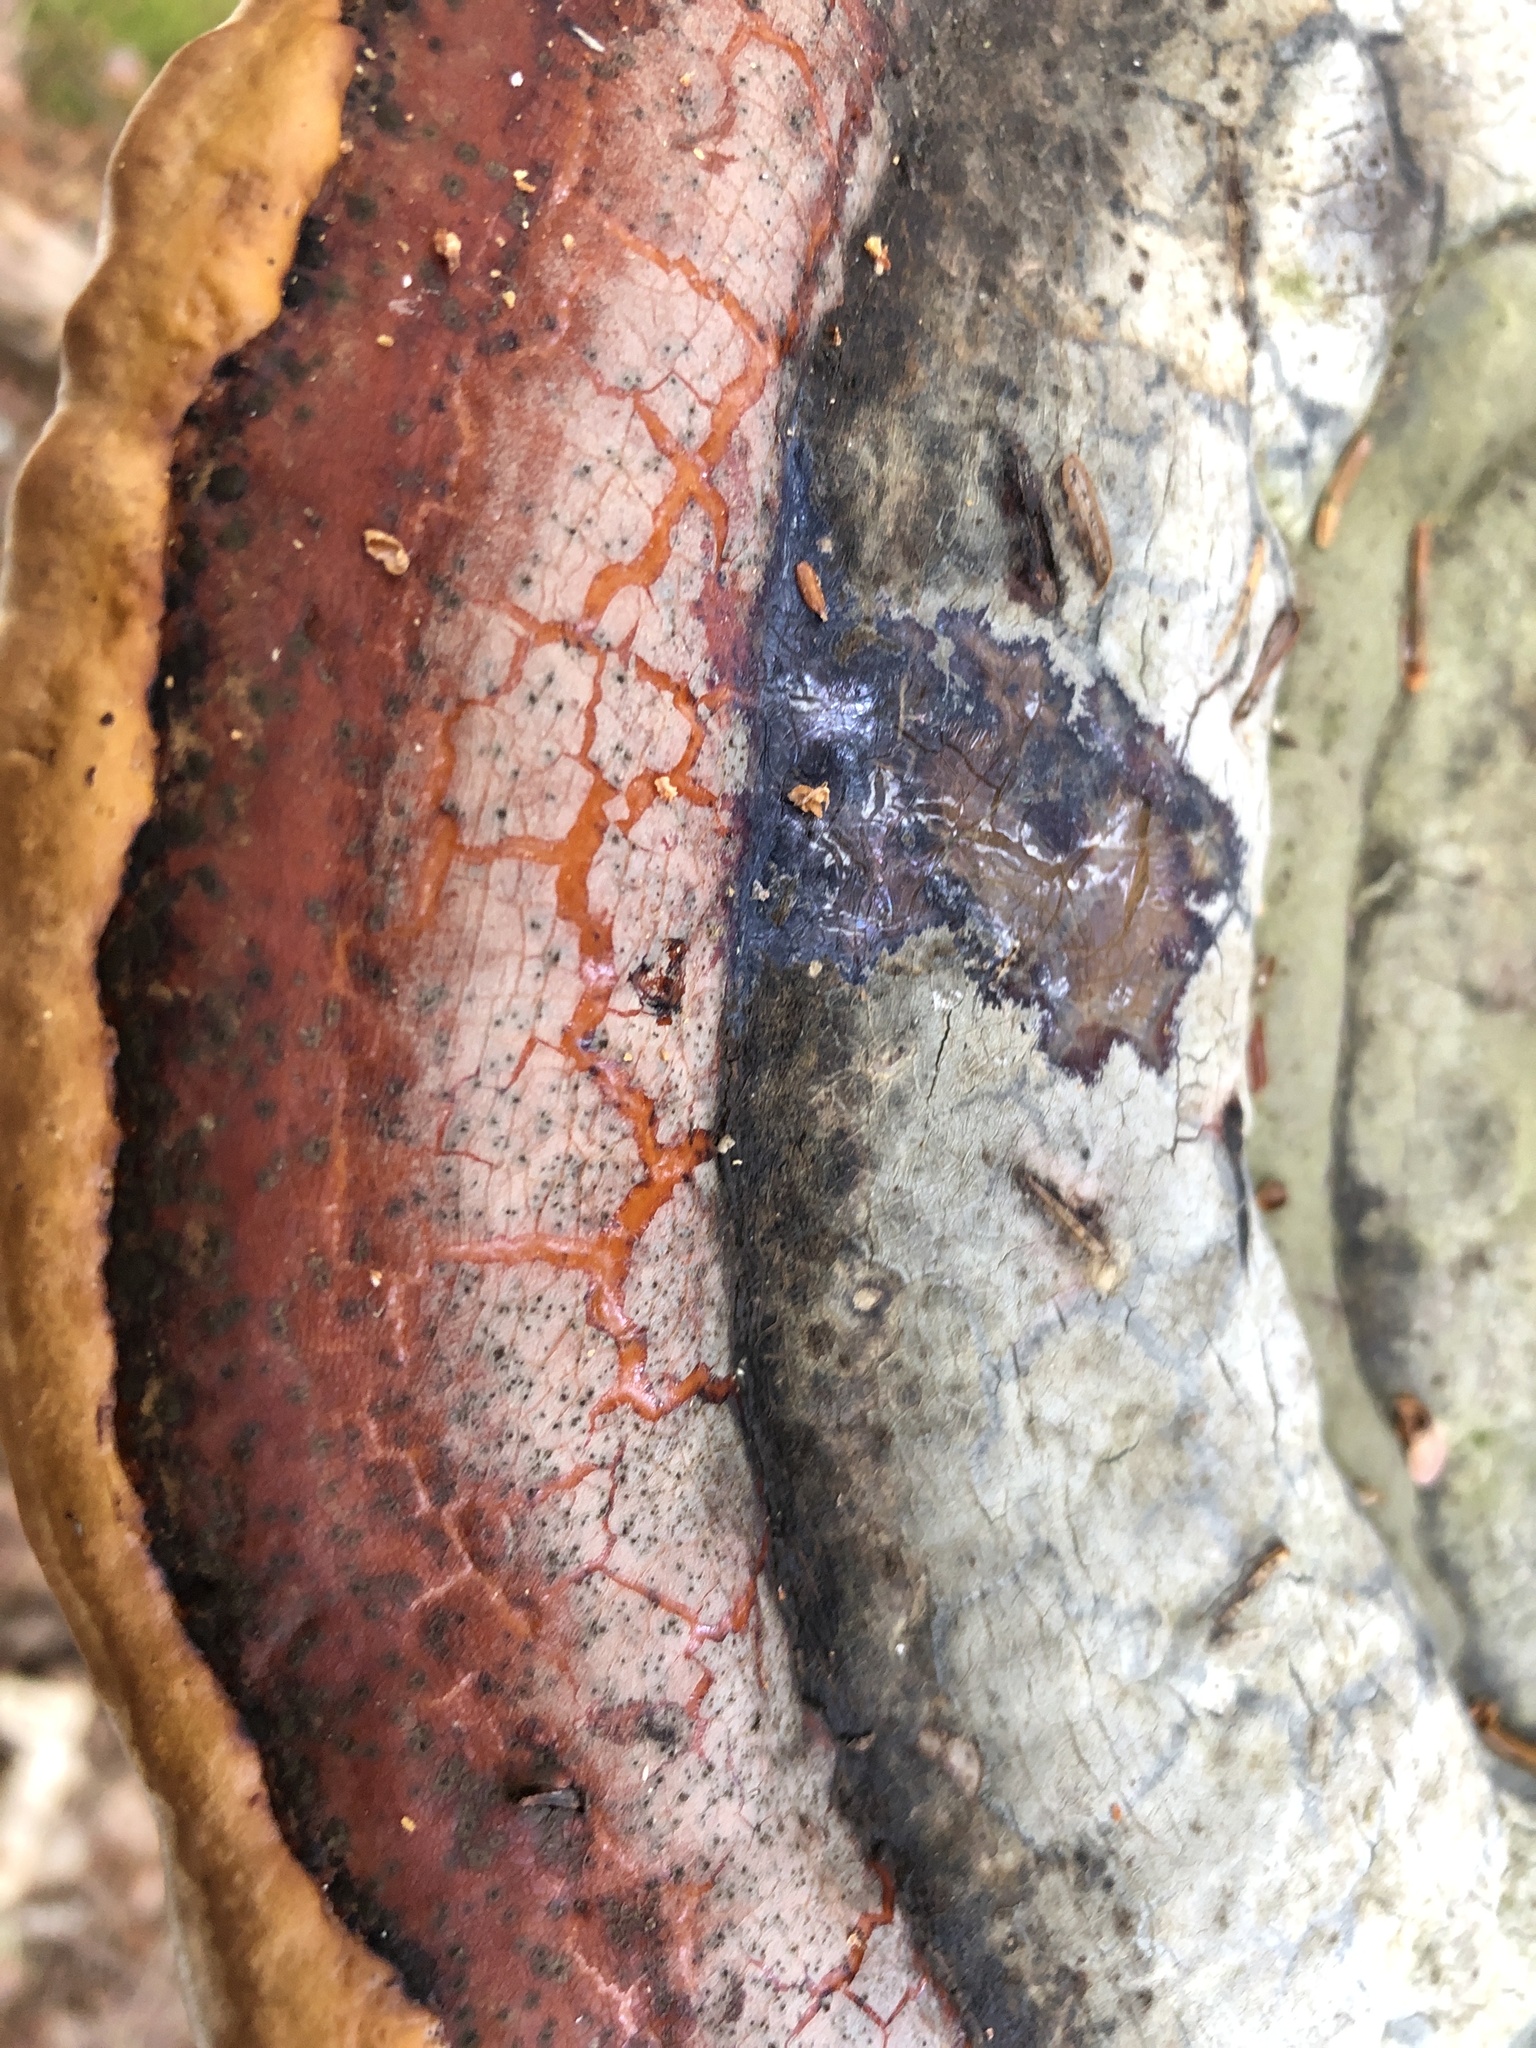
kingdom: Fungi
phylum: Basidiomycota
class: Agaricomycetes
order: Polyporales
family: Fomitopsidaceae
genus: Fomitopsis
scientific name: Fomitopsis mounceae
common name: Northern red belt
